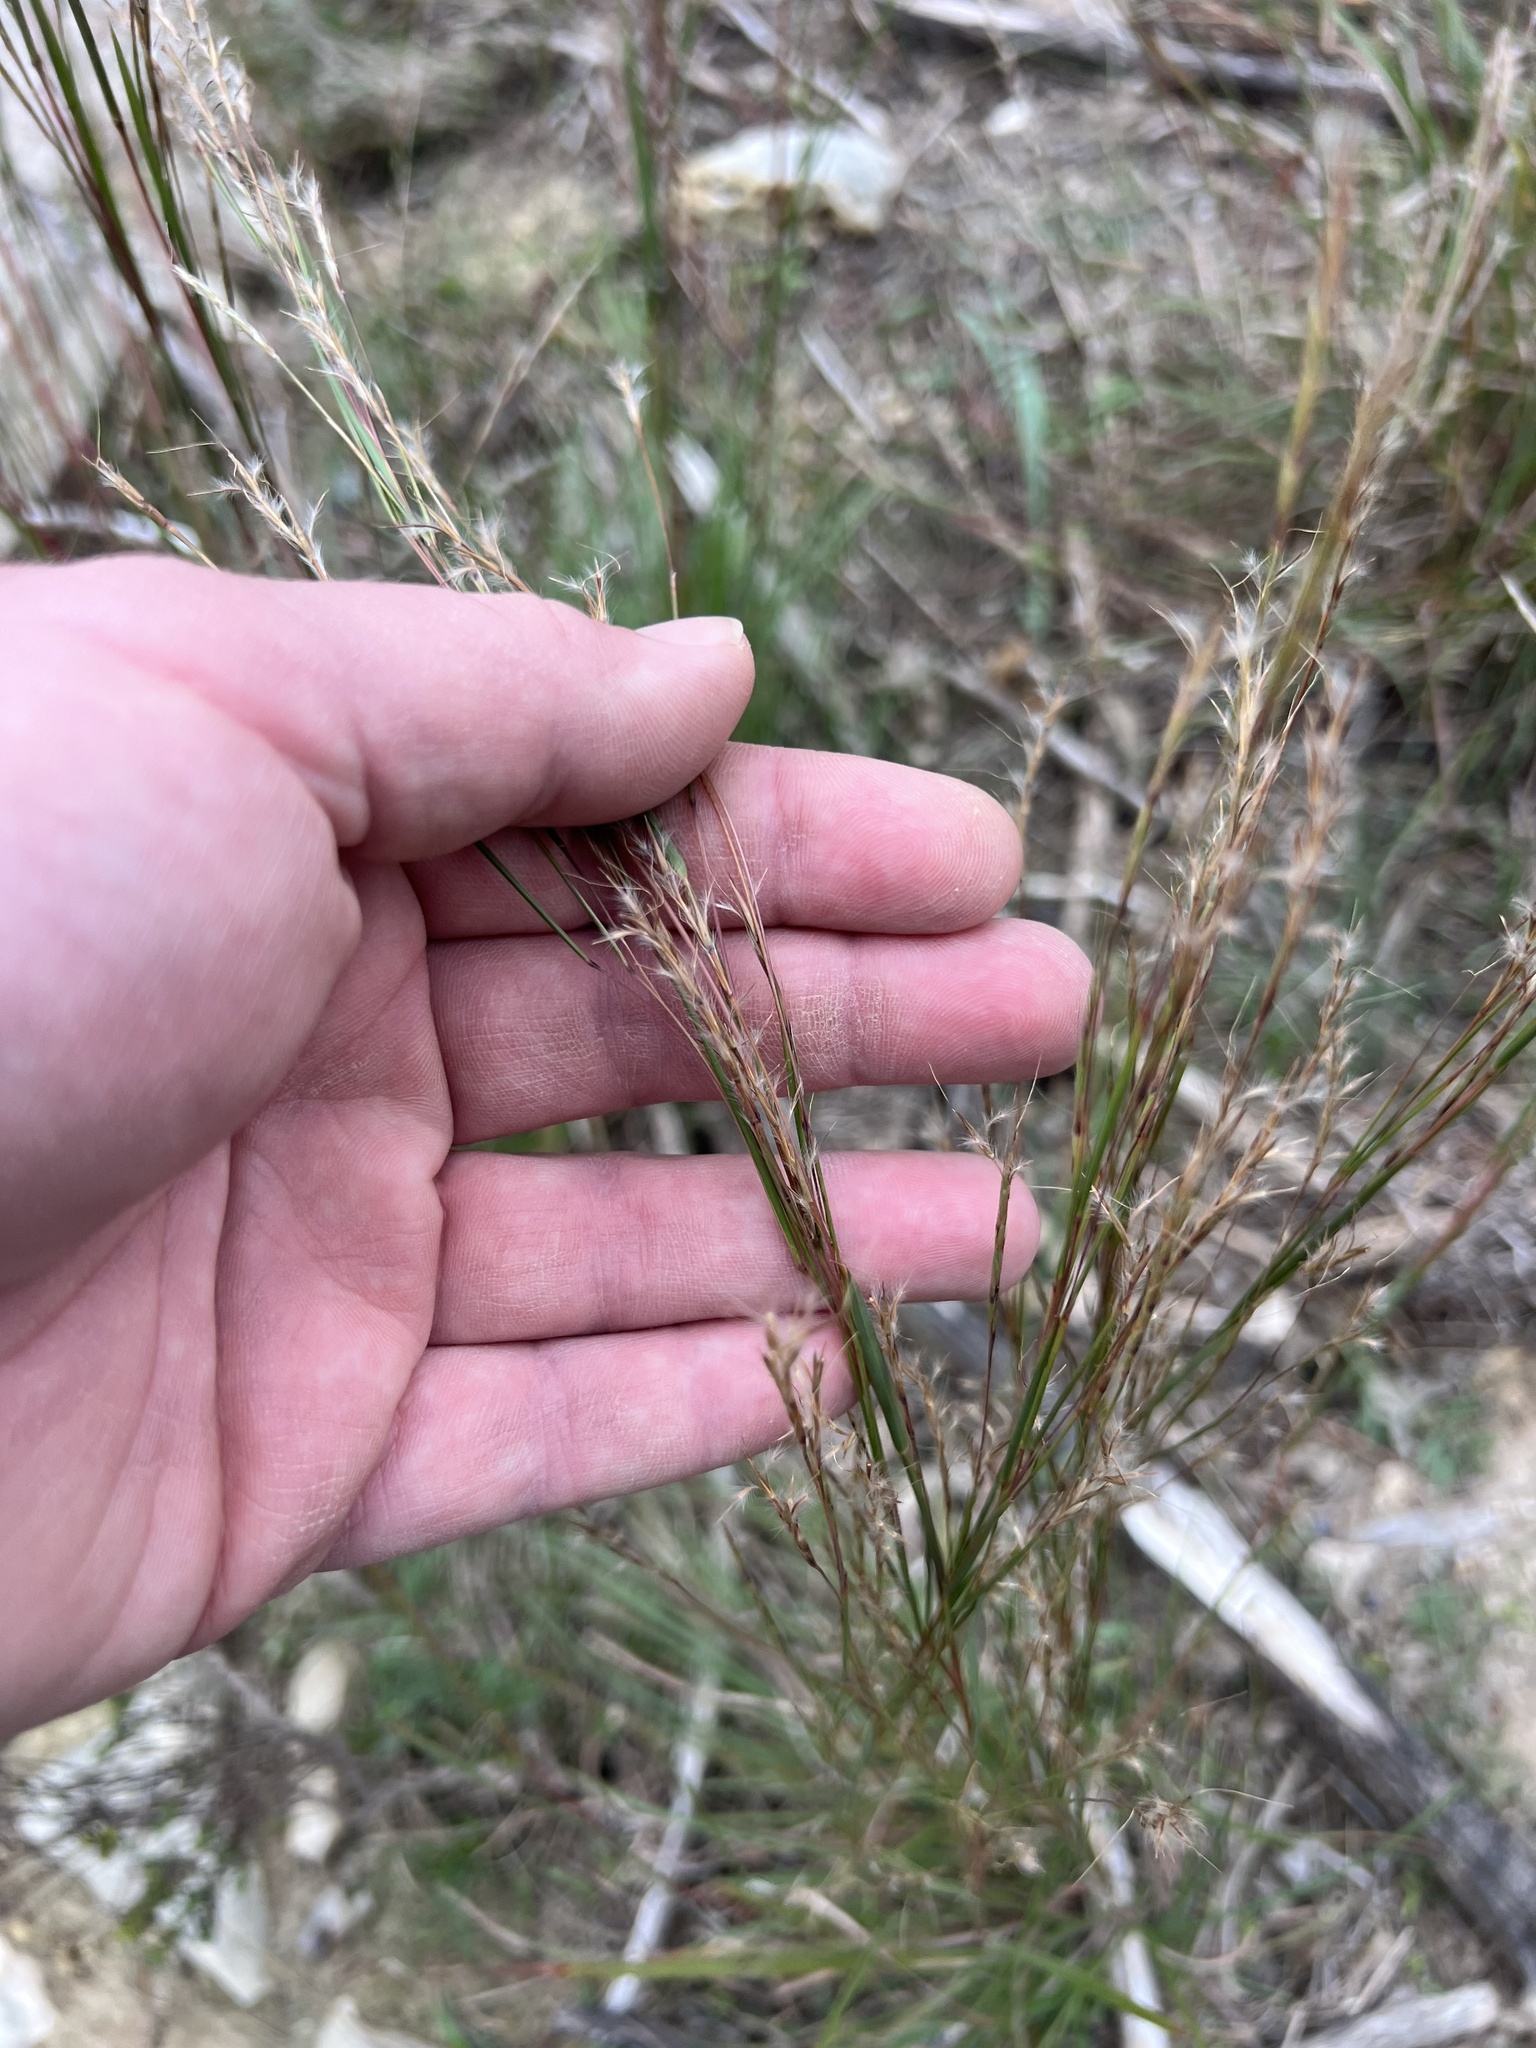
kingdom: Plantae
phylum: Tracheophyta
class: Liliopsida
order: Poales
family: Poaceae
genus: Schizachyrium
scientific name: Schizachyrium scoparium
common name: Little bluestem
